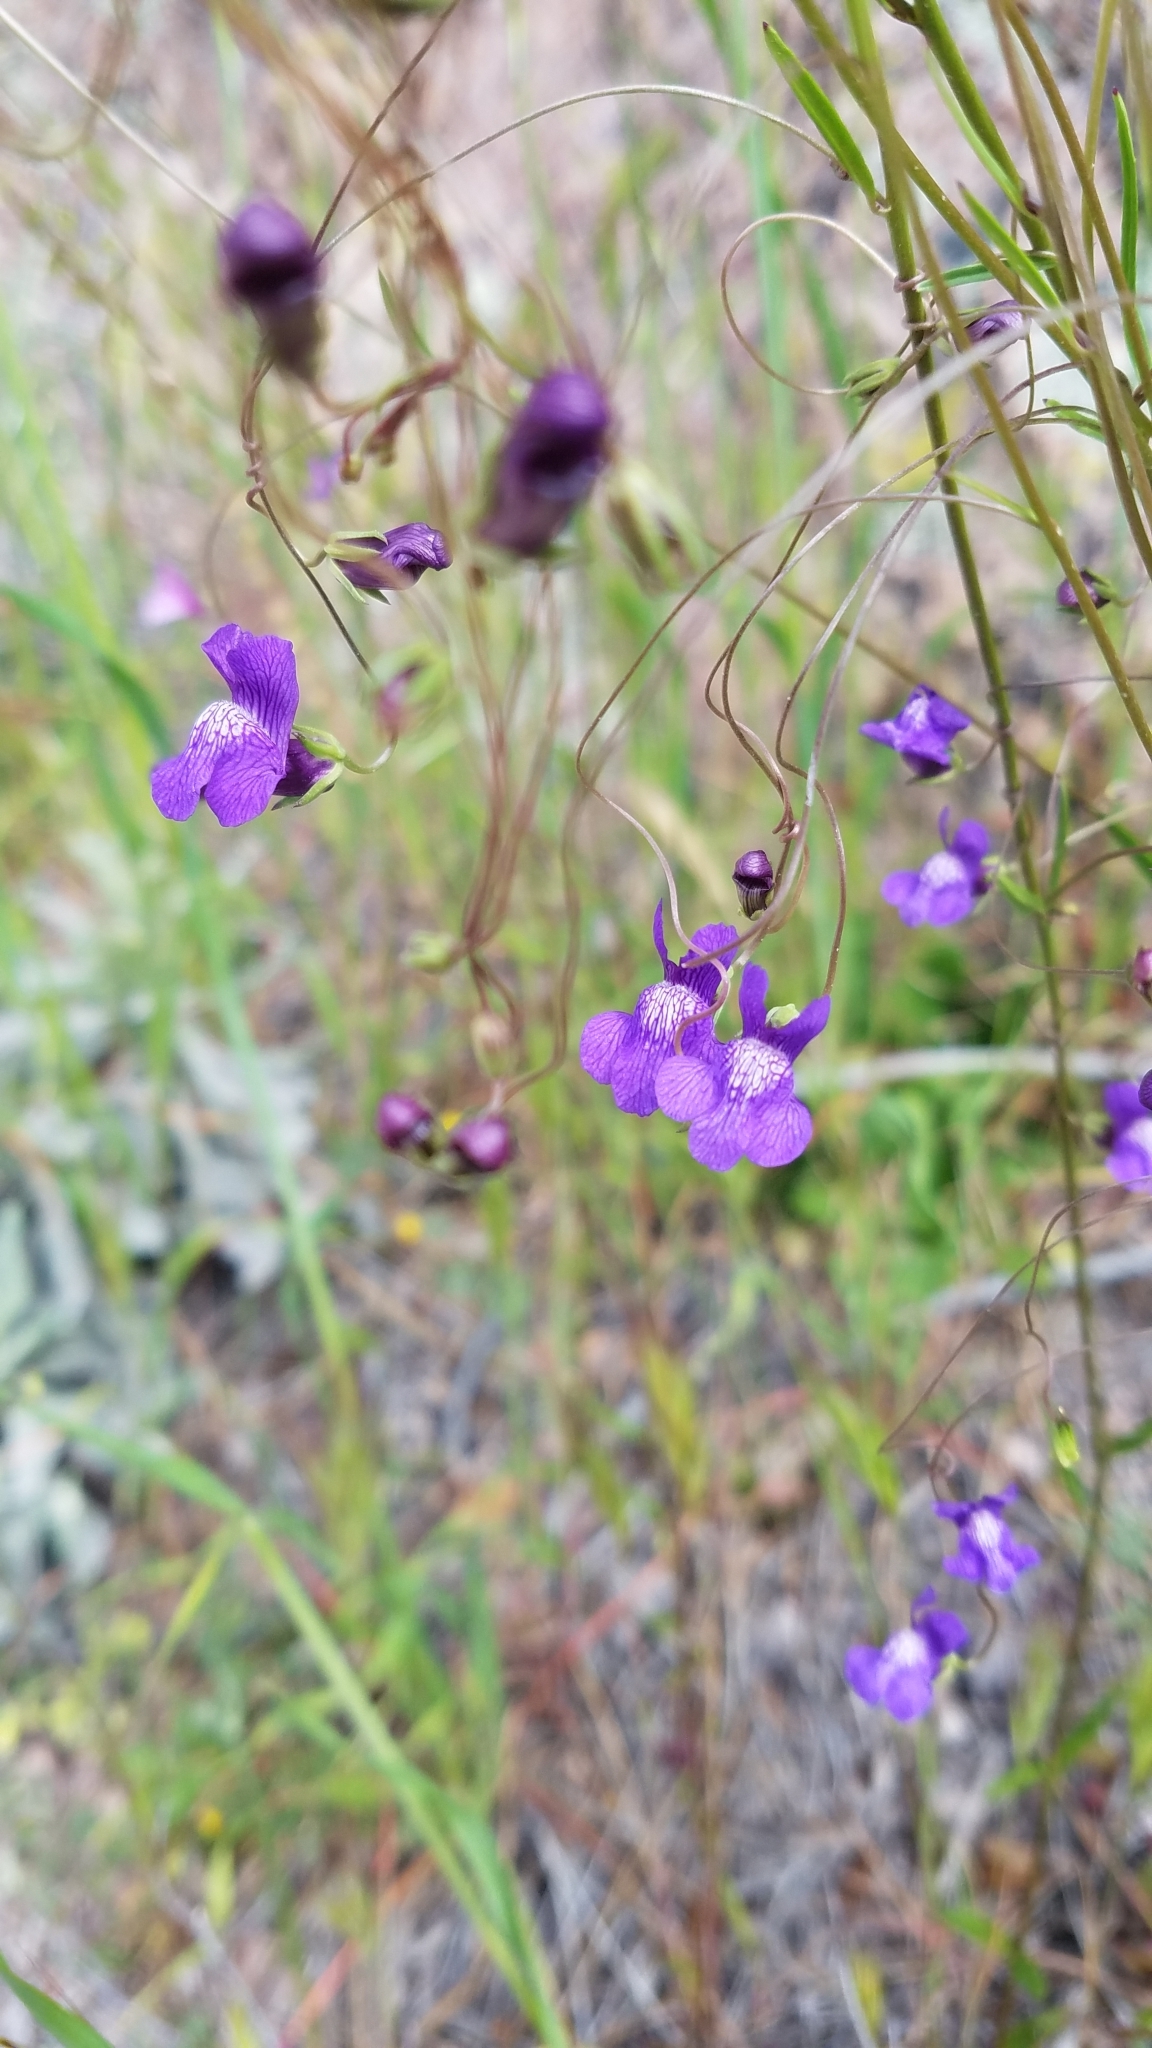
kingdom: Plantae
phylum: Tracheophyta
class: Magnoliopsida
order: Lamiales
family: Plantaginaceae
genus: Neogaerrhinum
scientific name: Neogaerrhinum strictum
